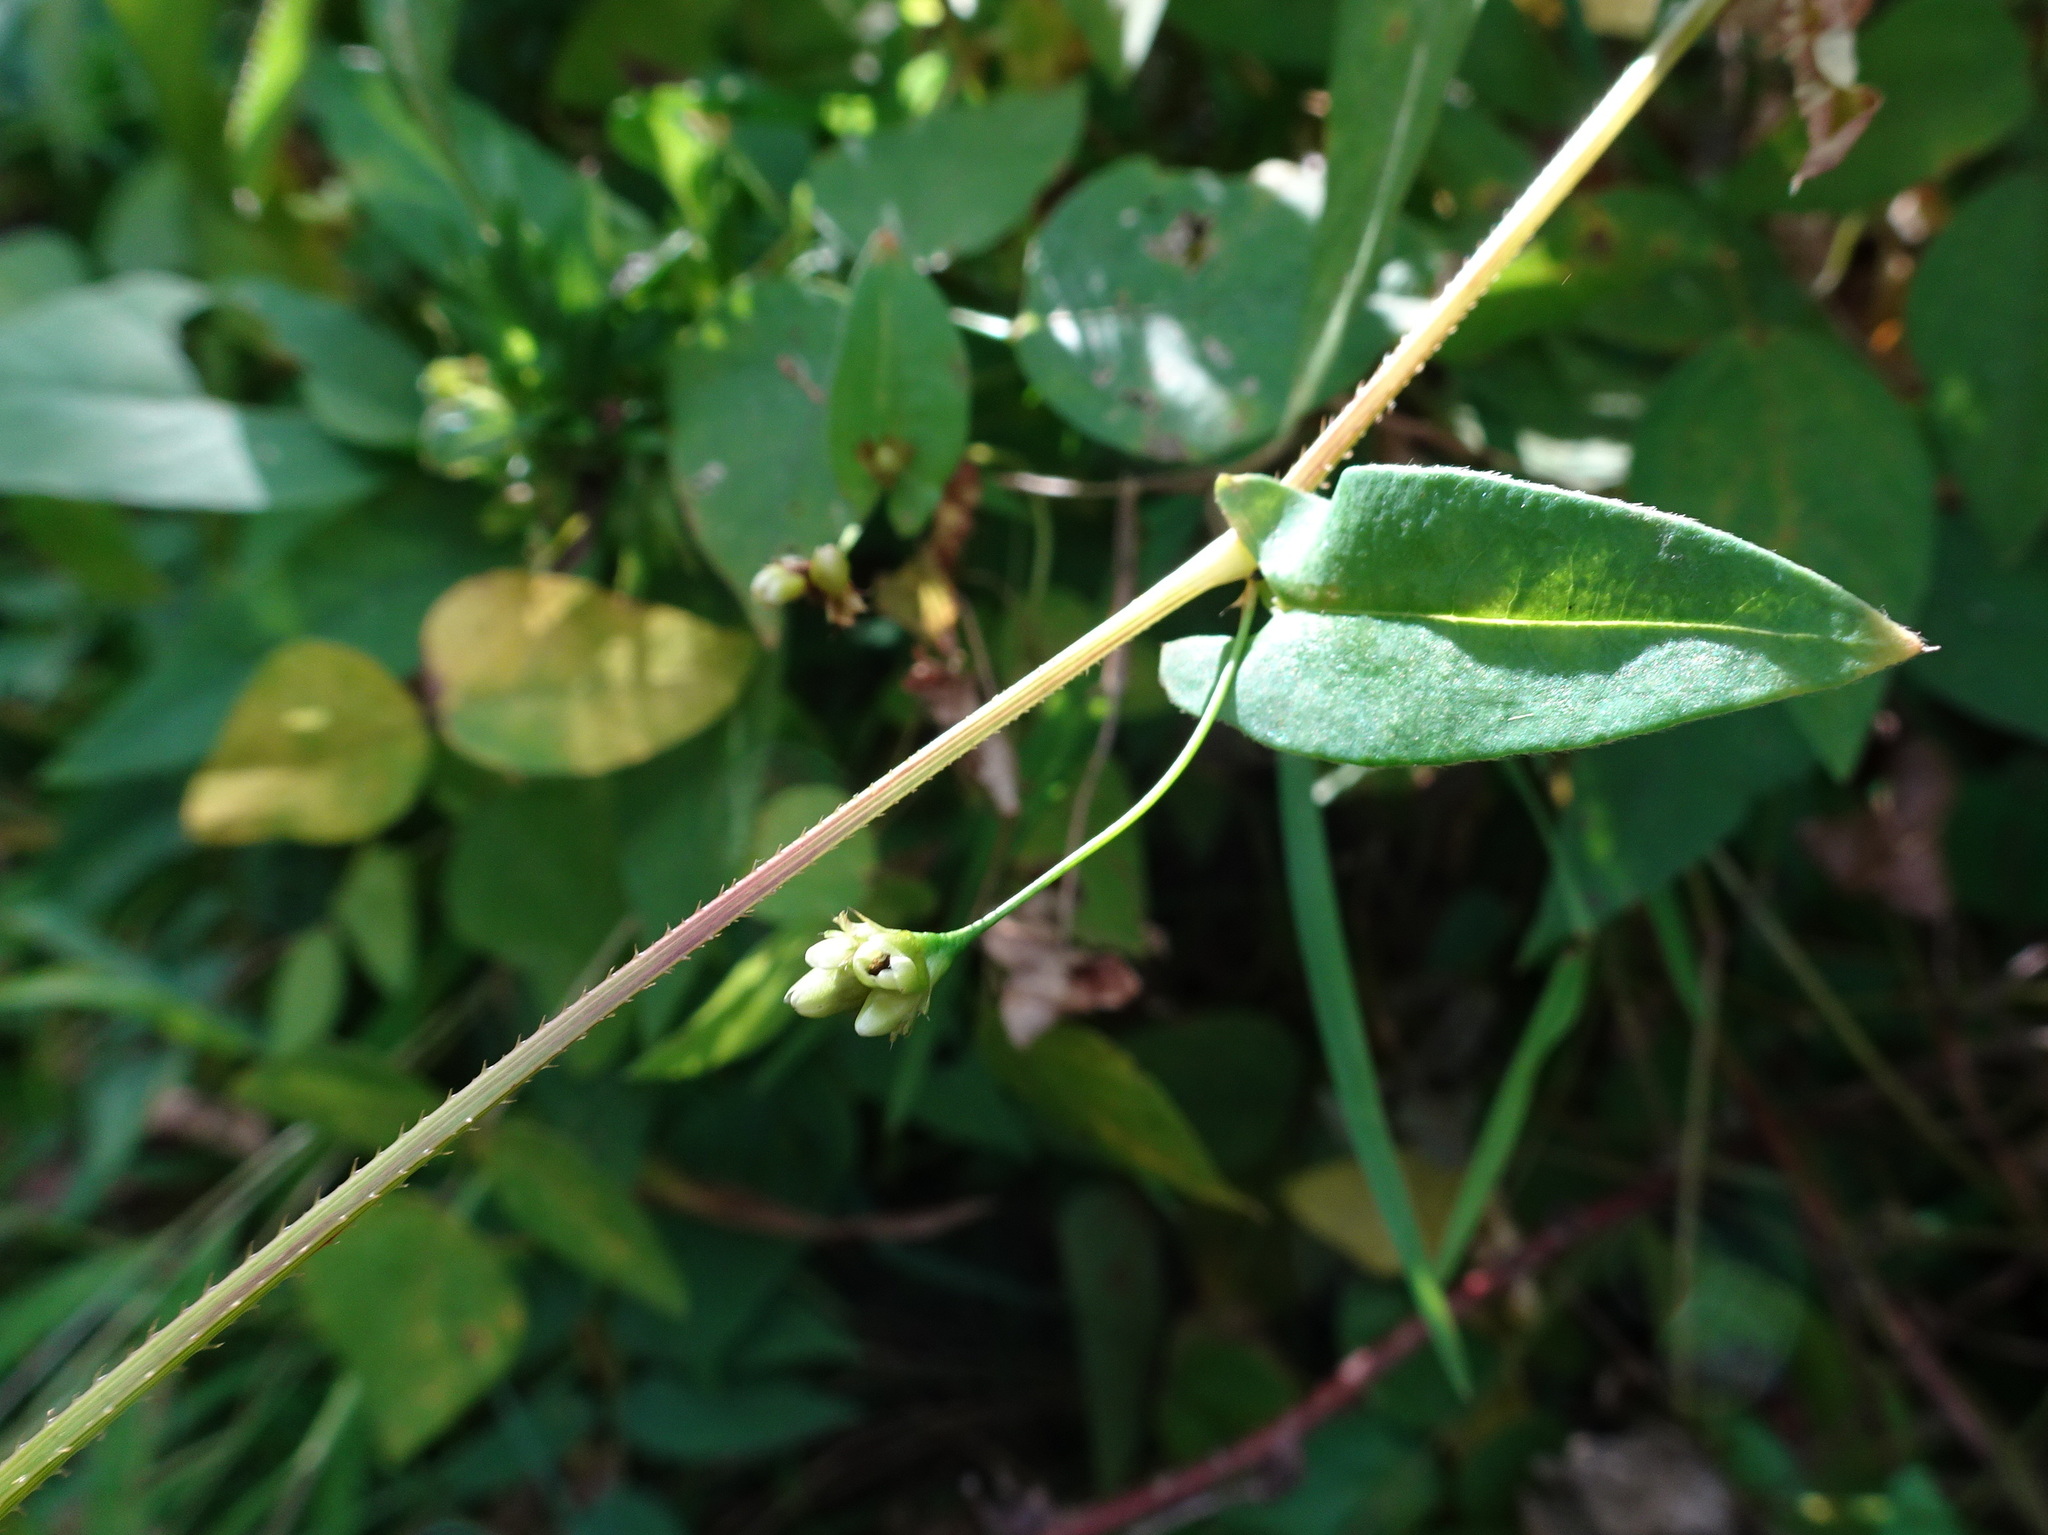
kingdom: Plantae
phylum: Tracheophyta
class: Magnoliopsida
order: Caryophyllales
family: Polygonaceae
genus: Persicaria
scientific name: Persicaria sagittata
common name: American tearthumb
